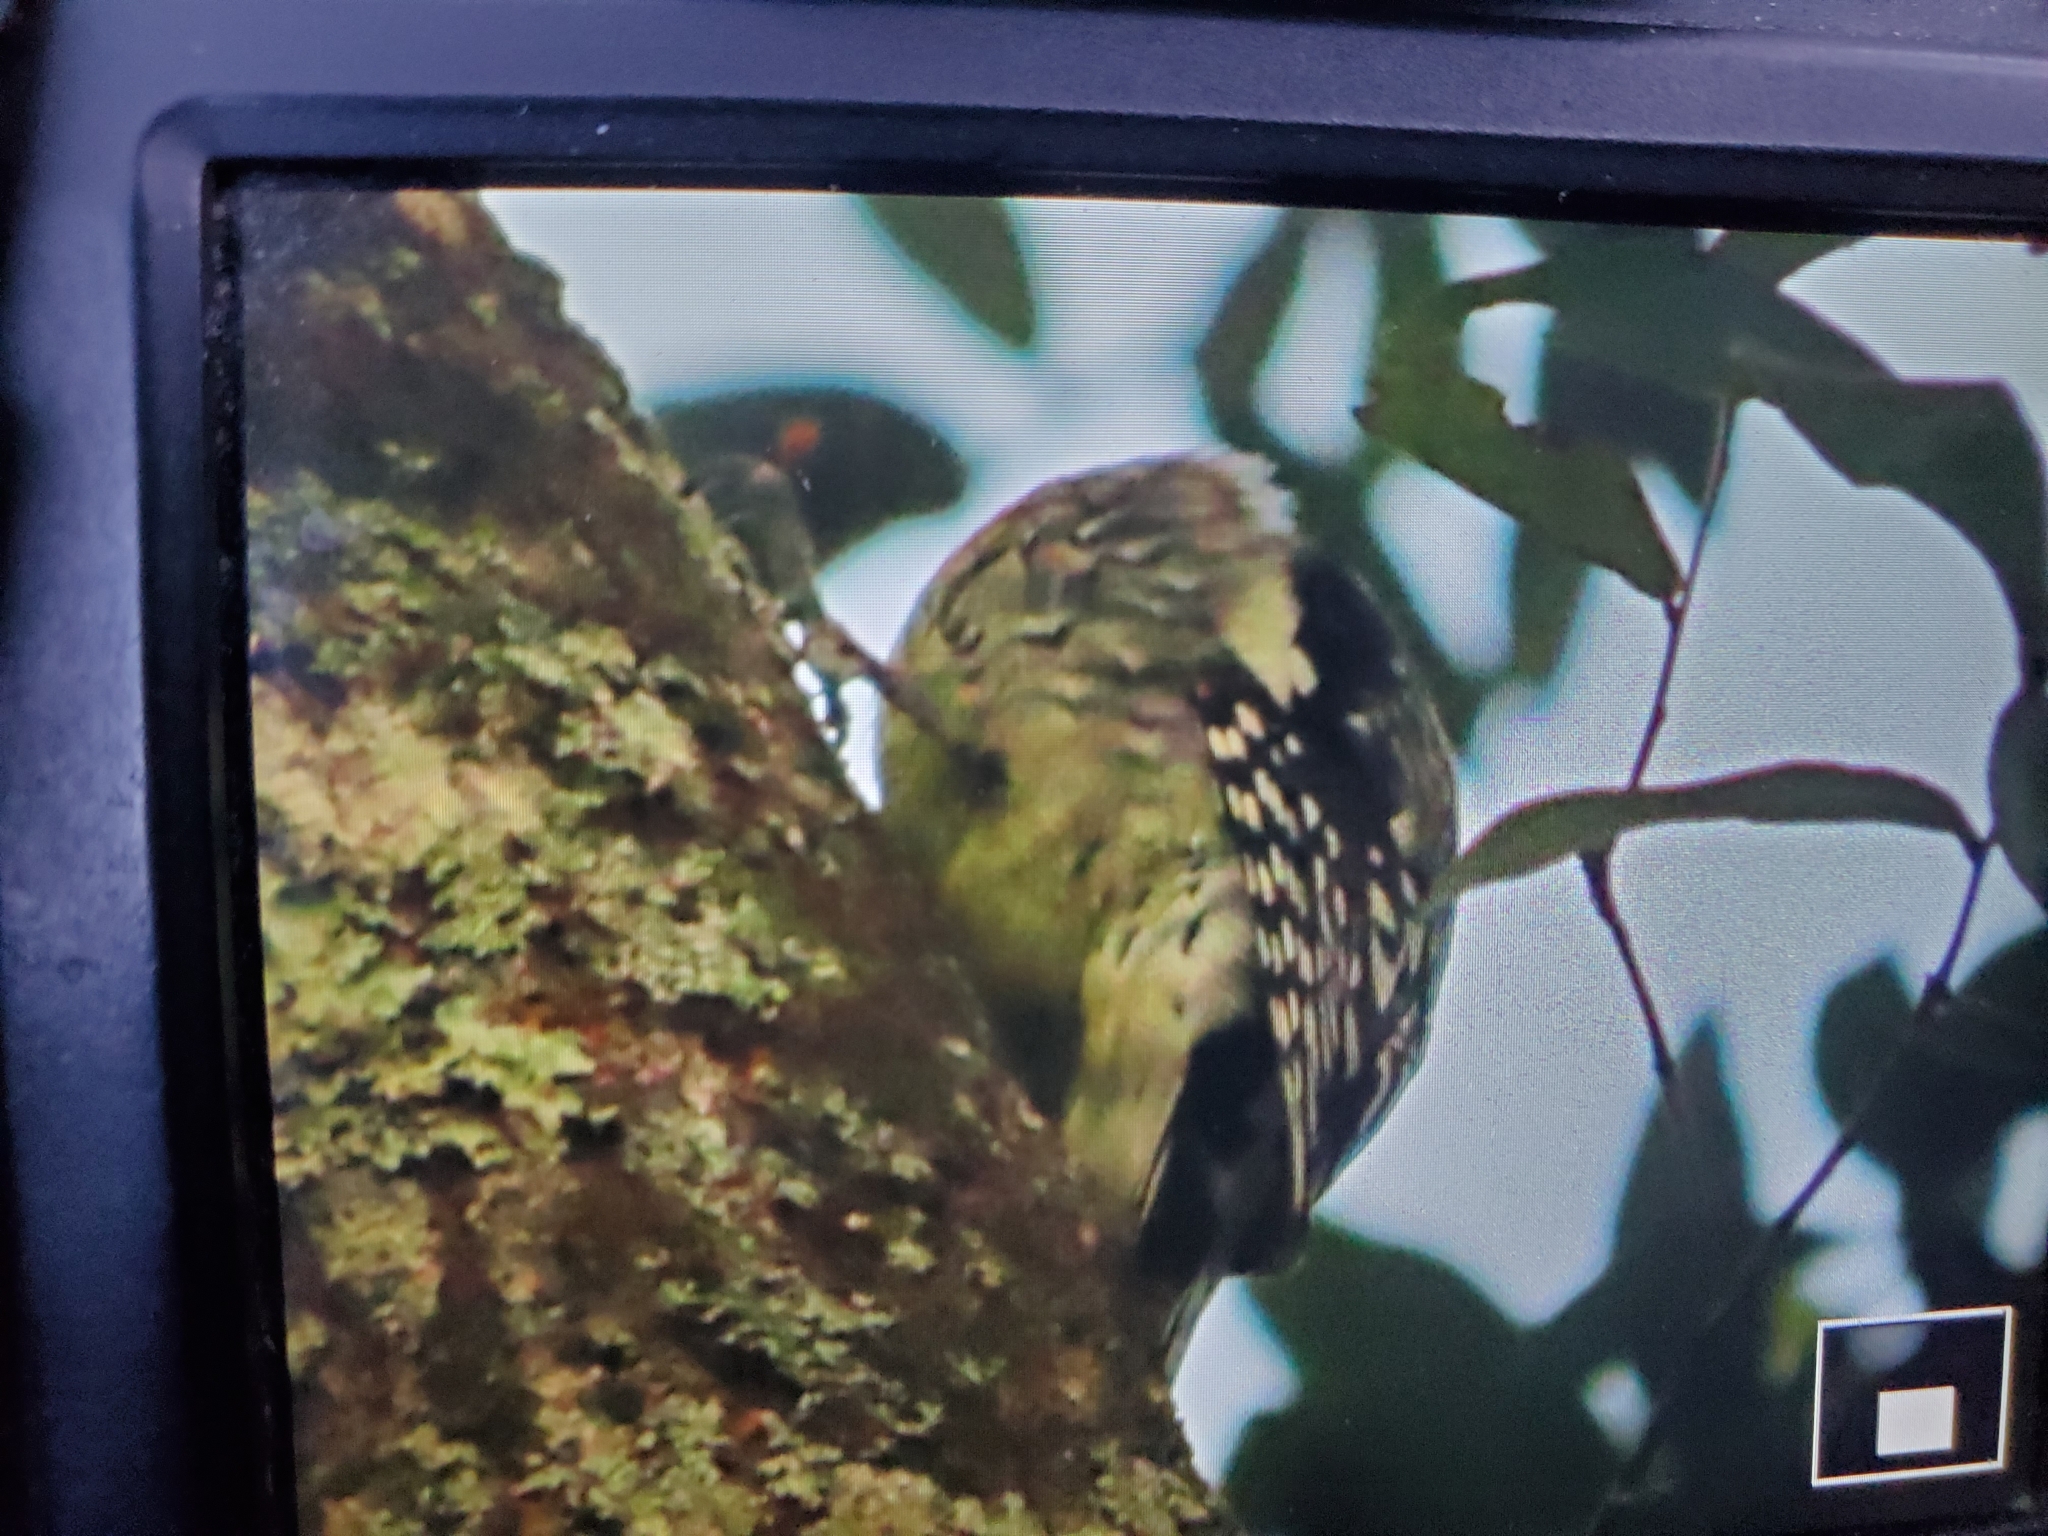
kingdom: Animalia
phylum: Chordata
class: Aves
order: Piciformes
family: Picidae
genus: Sphyrapicus
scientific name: Sphyrapicus varius
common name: Yellow-bellied sapsucker
